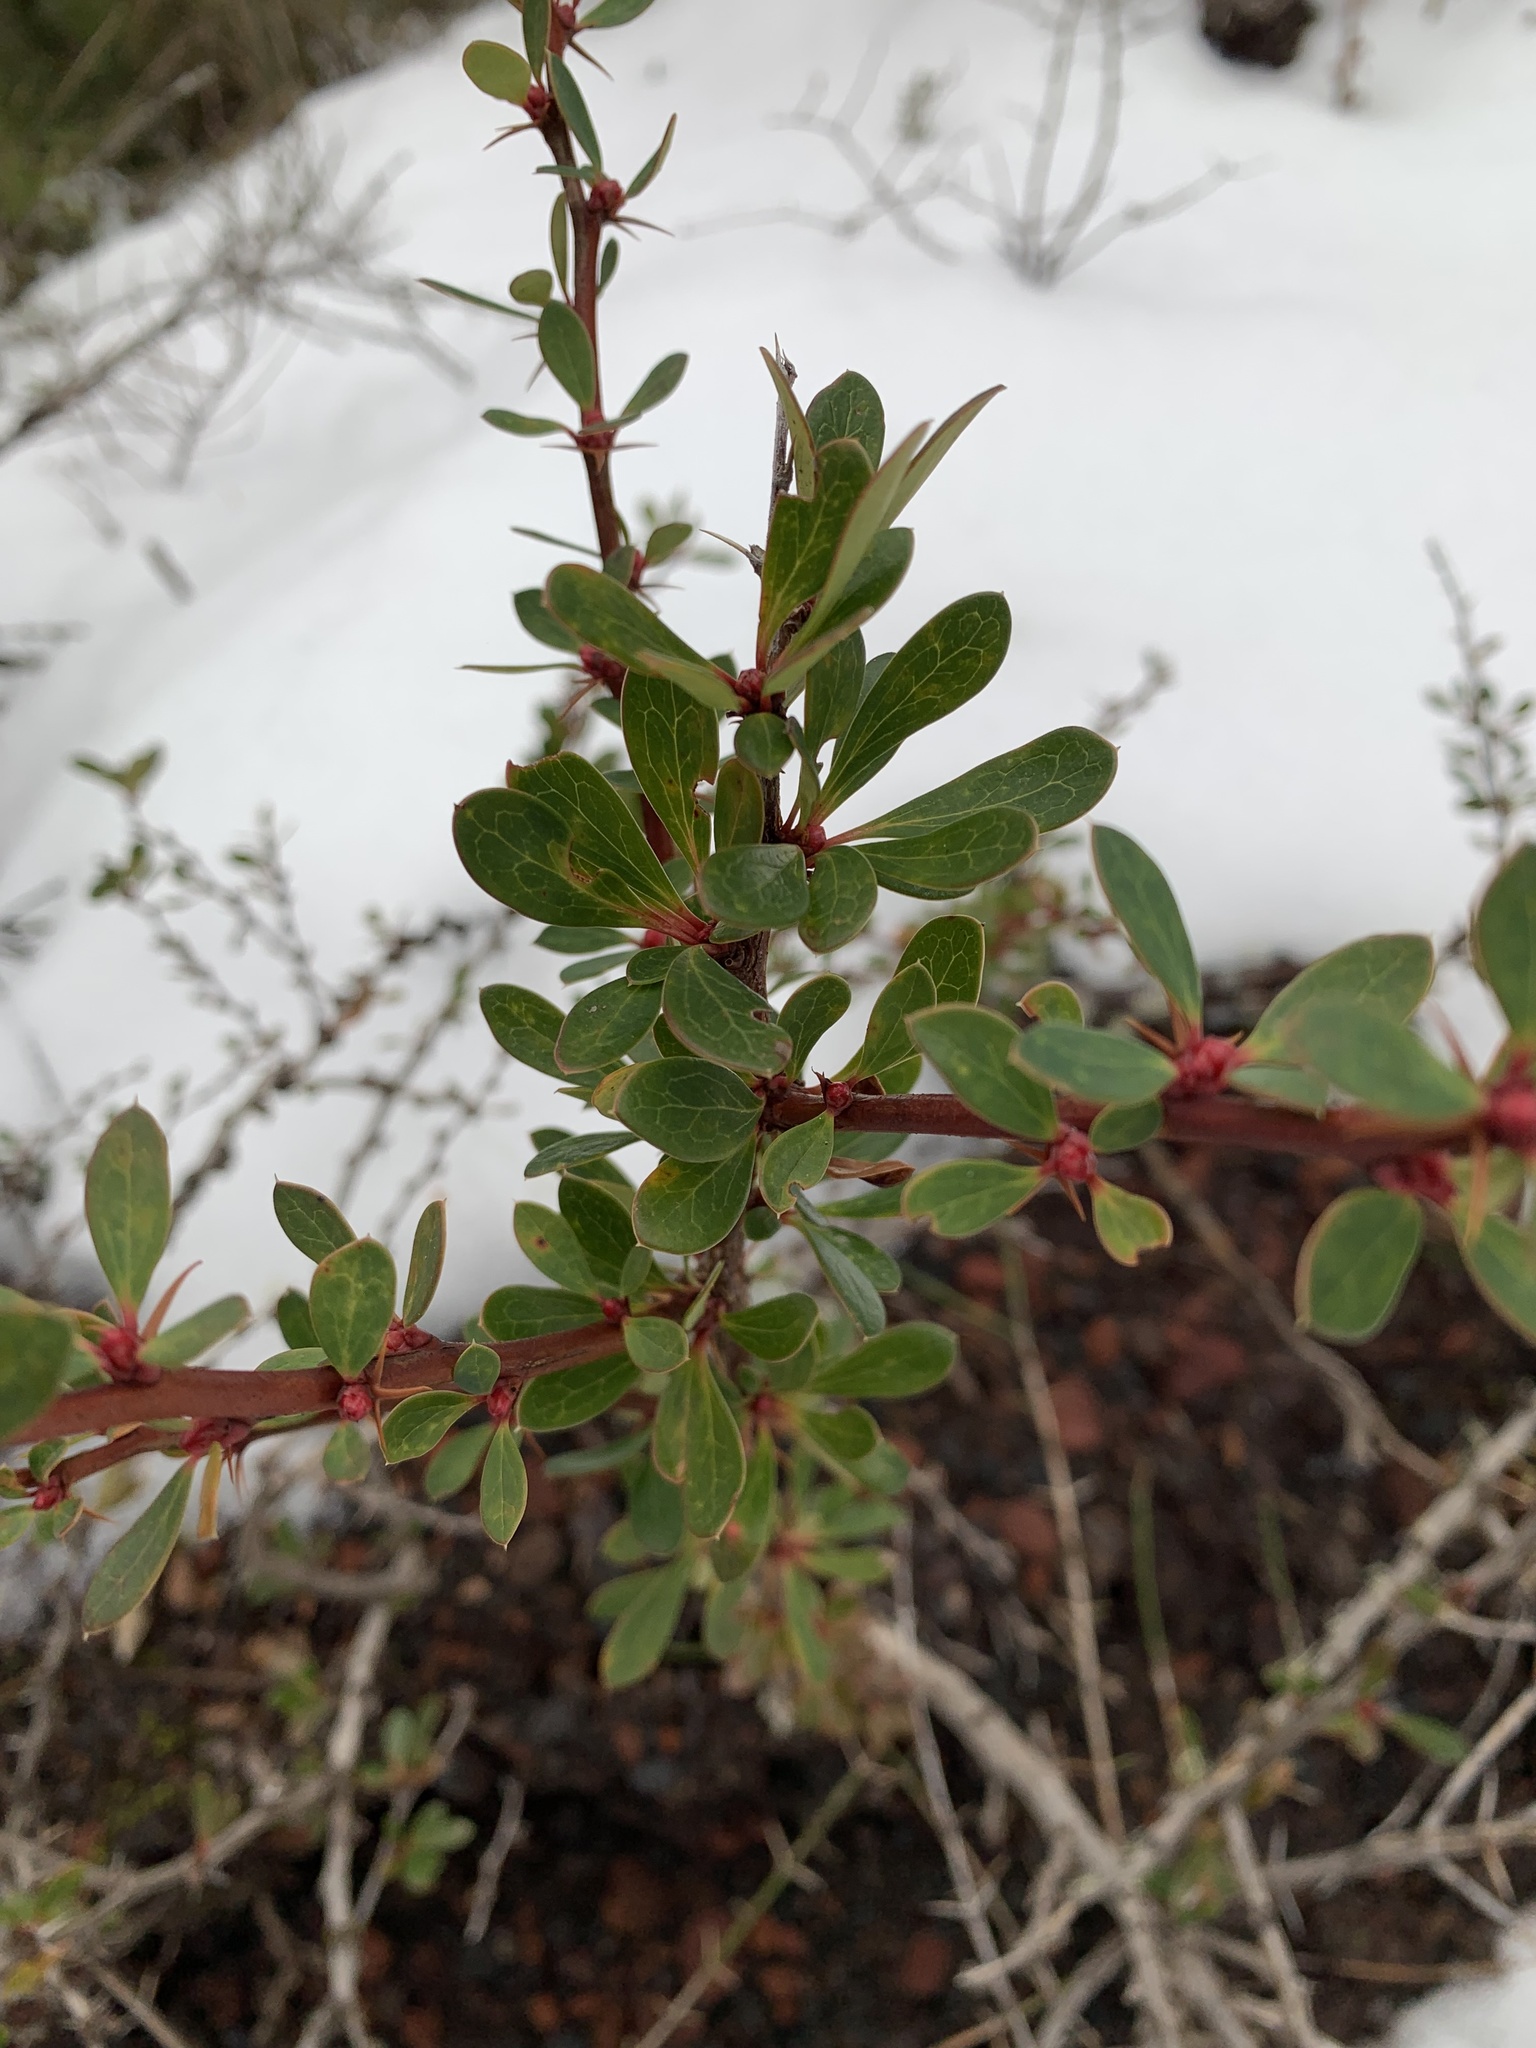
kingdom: Plantae
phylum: Tracheophyta
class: Magnoliopsida
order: Ranunculales
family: Berberidaceae
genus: Berberis
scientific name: Berberis microphylla
